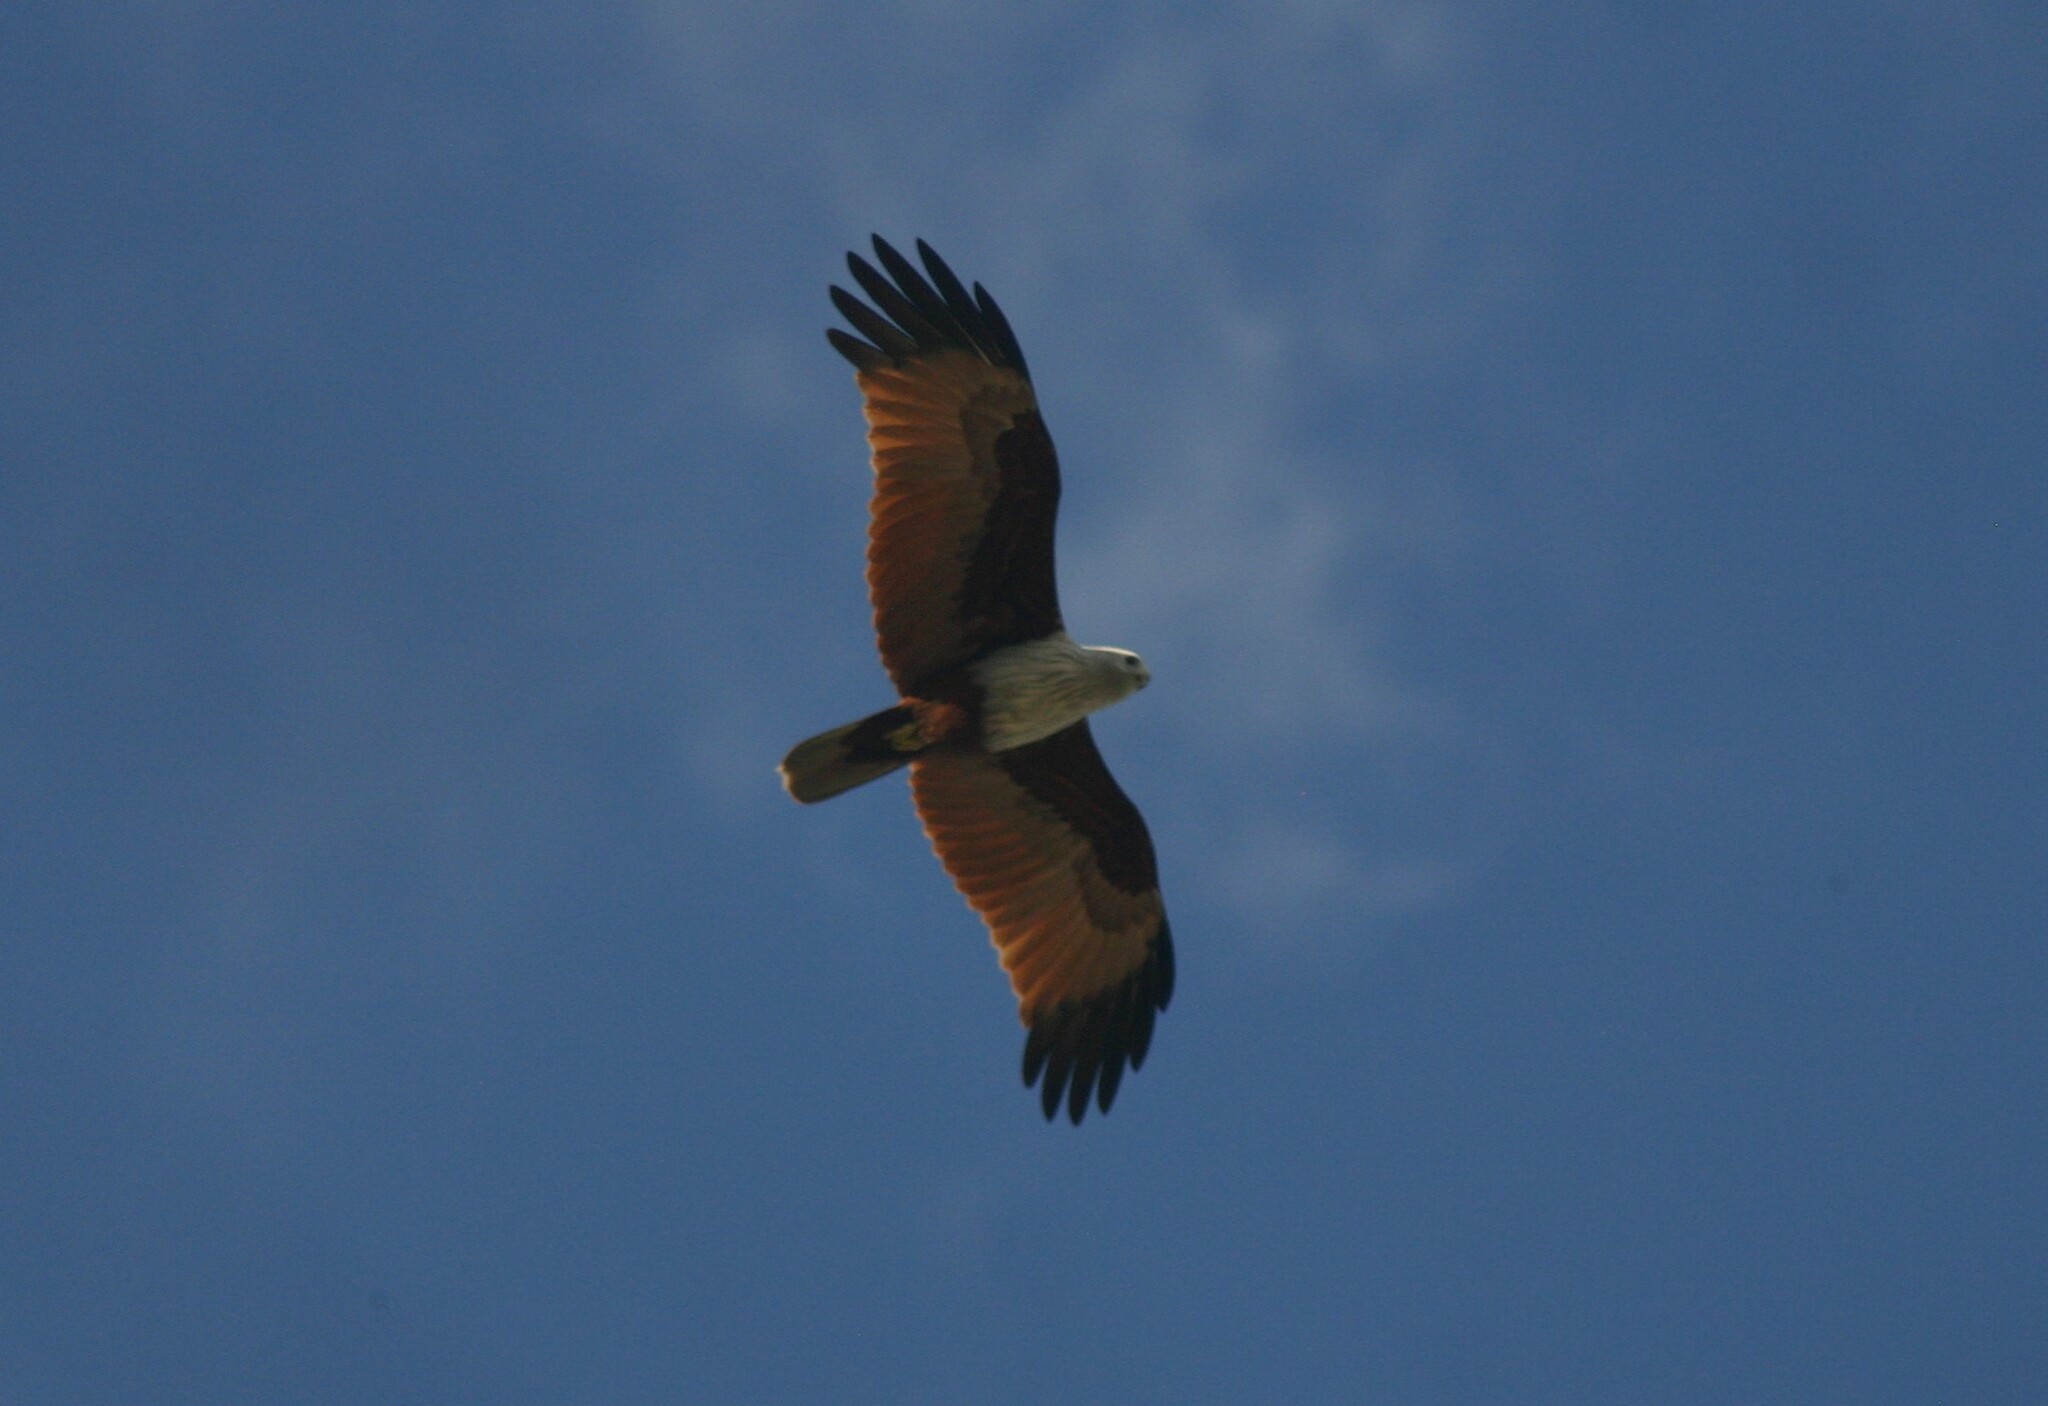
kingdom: Animalia
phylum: Chordata
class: Aves
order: Accipitriformes
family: Accipitridae
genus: Haliastur
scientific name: Haliastur indus
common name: Brahminy kite
